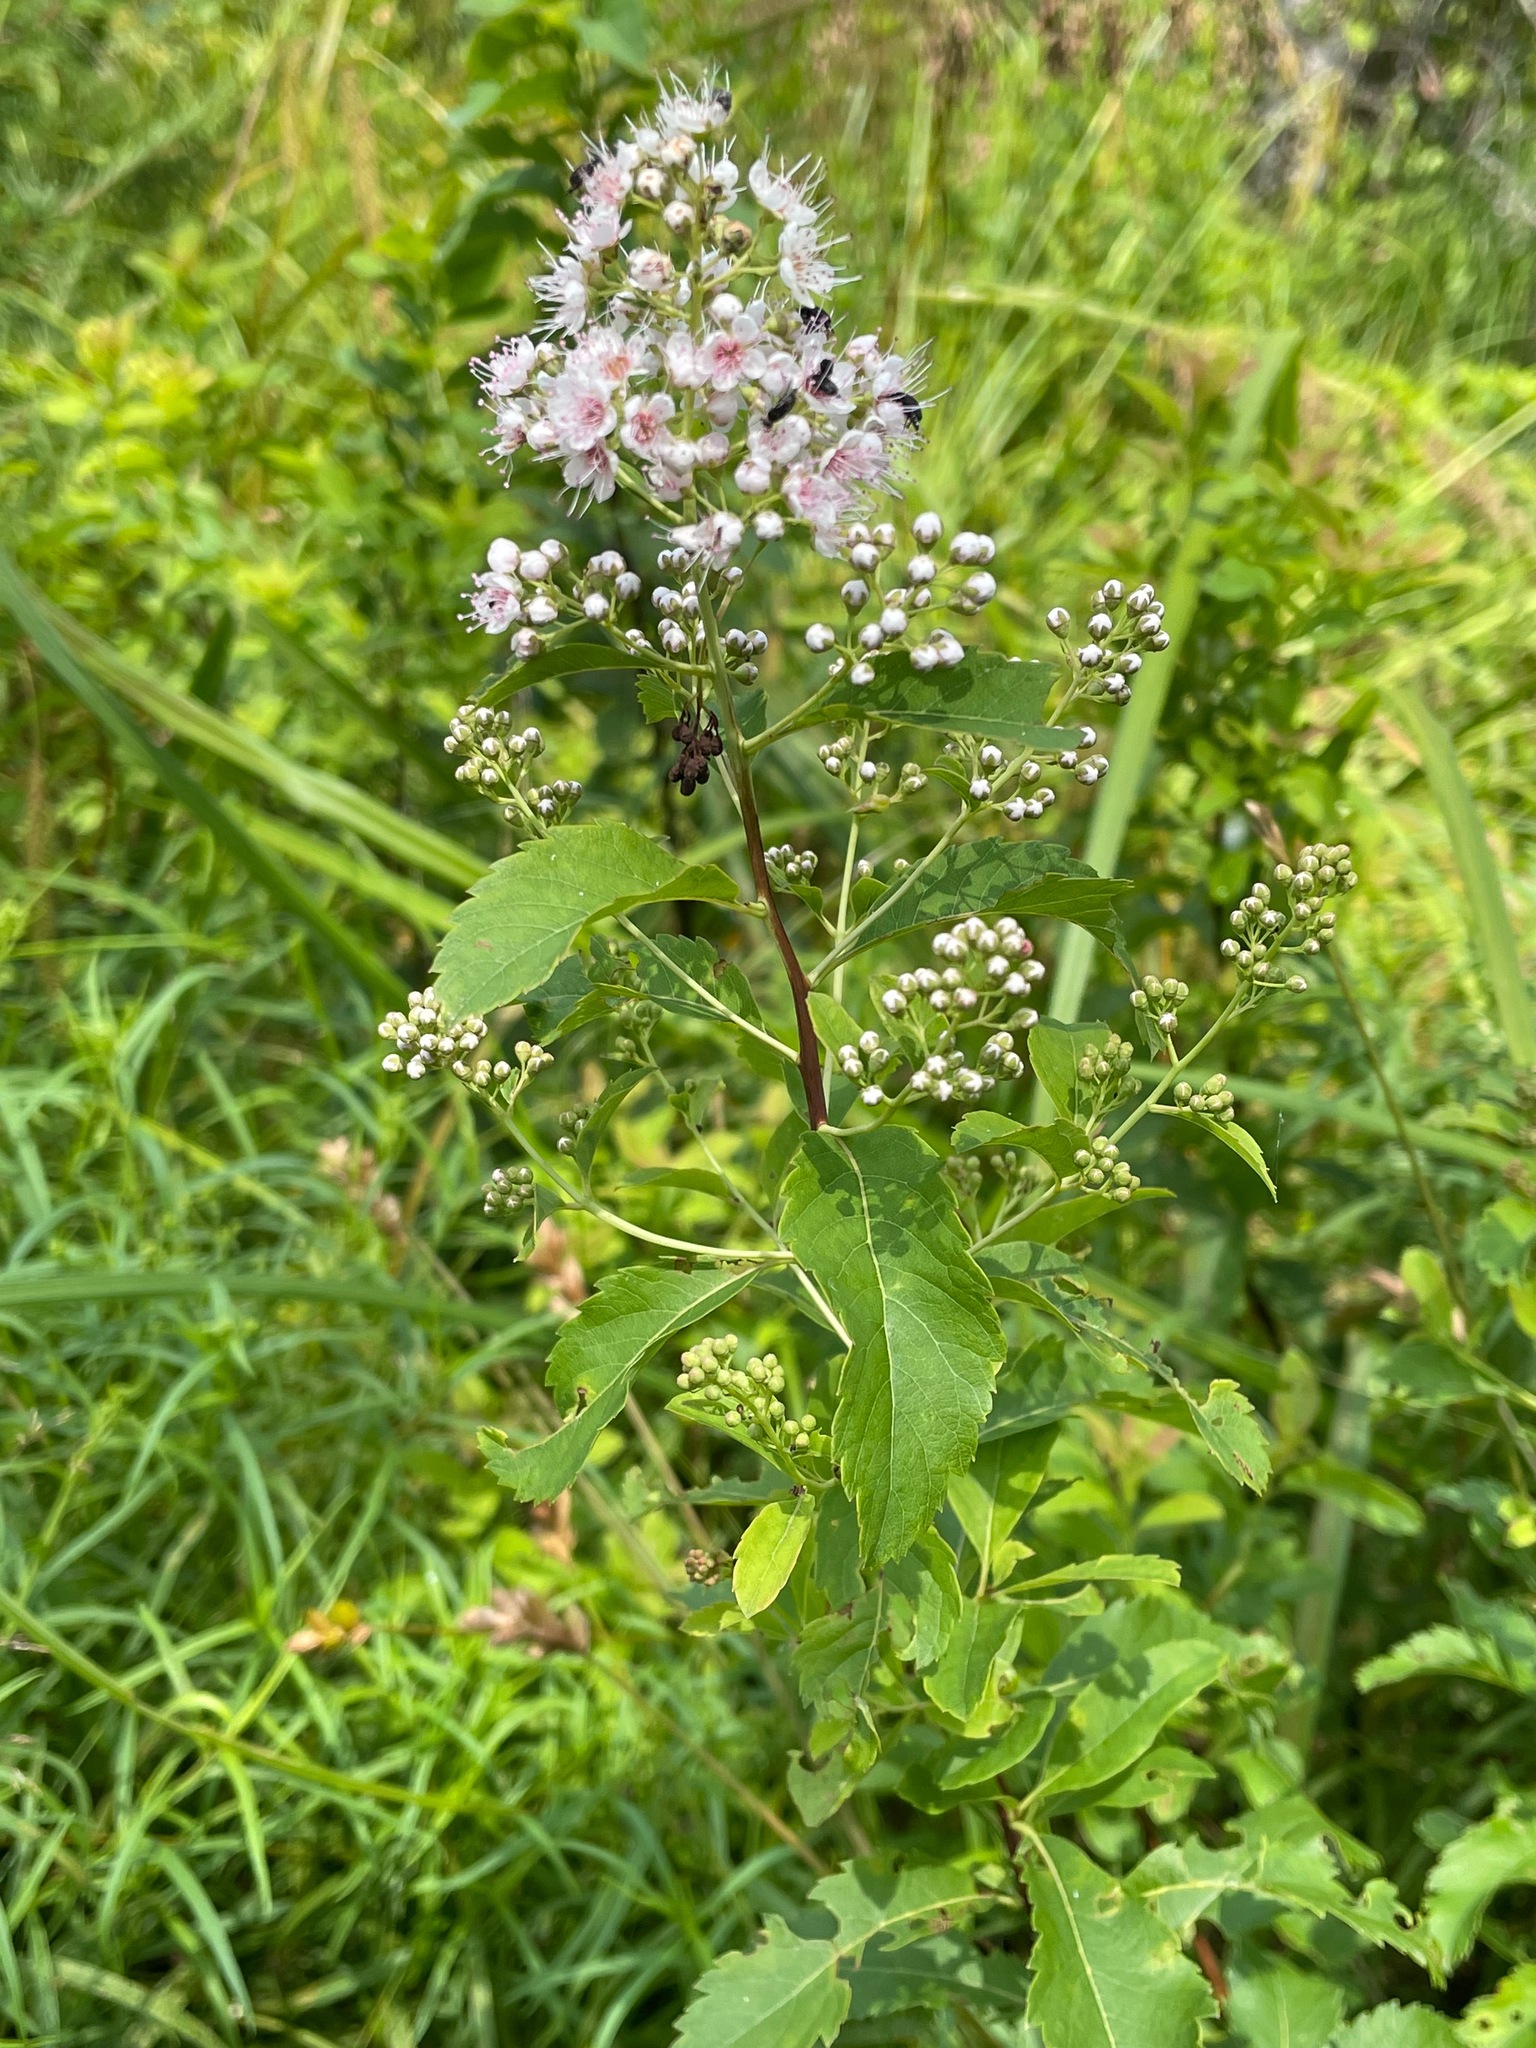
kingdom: Plantae
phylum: Tracheophyta
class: Magnoliopsida
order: Rosales
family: Rosaceae
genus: Spiraea
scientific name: Spiraea alba
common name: Pale bridewort
